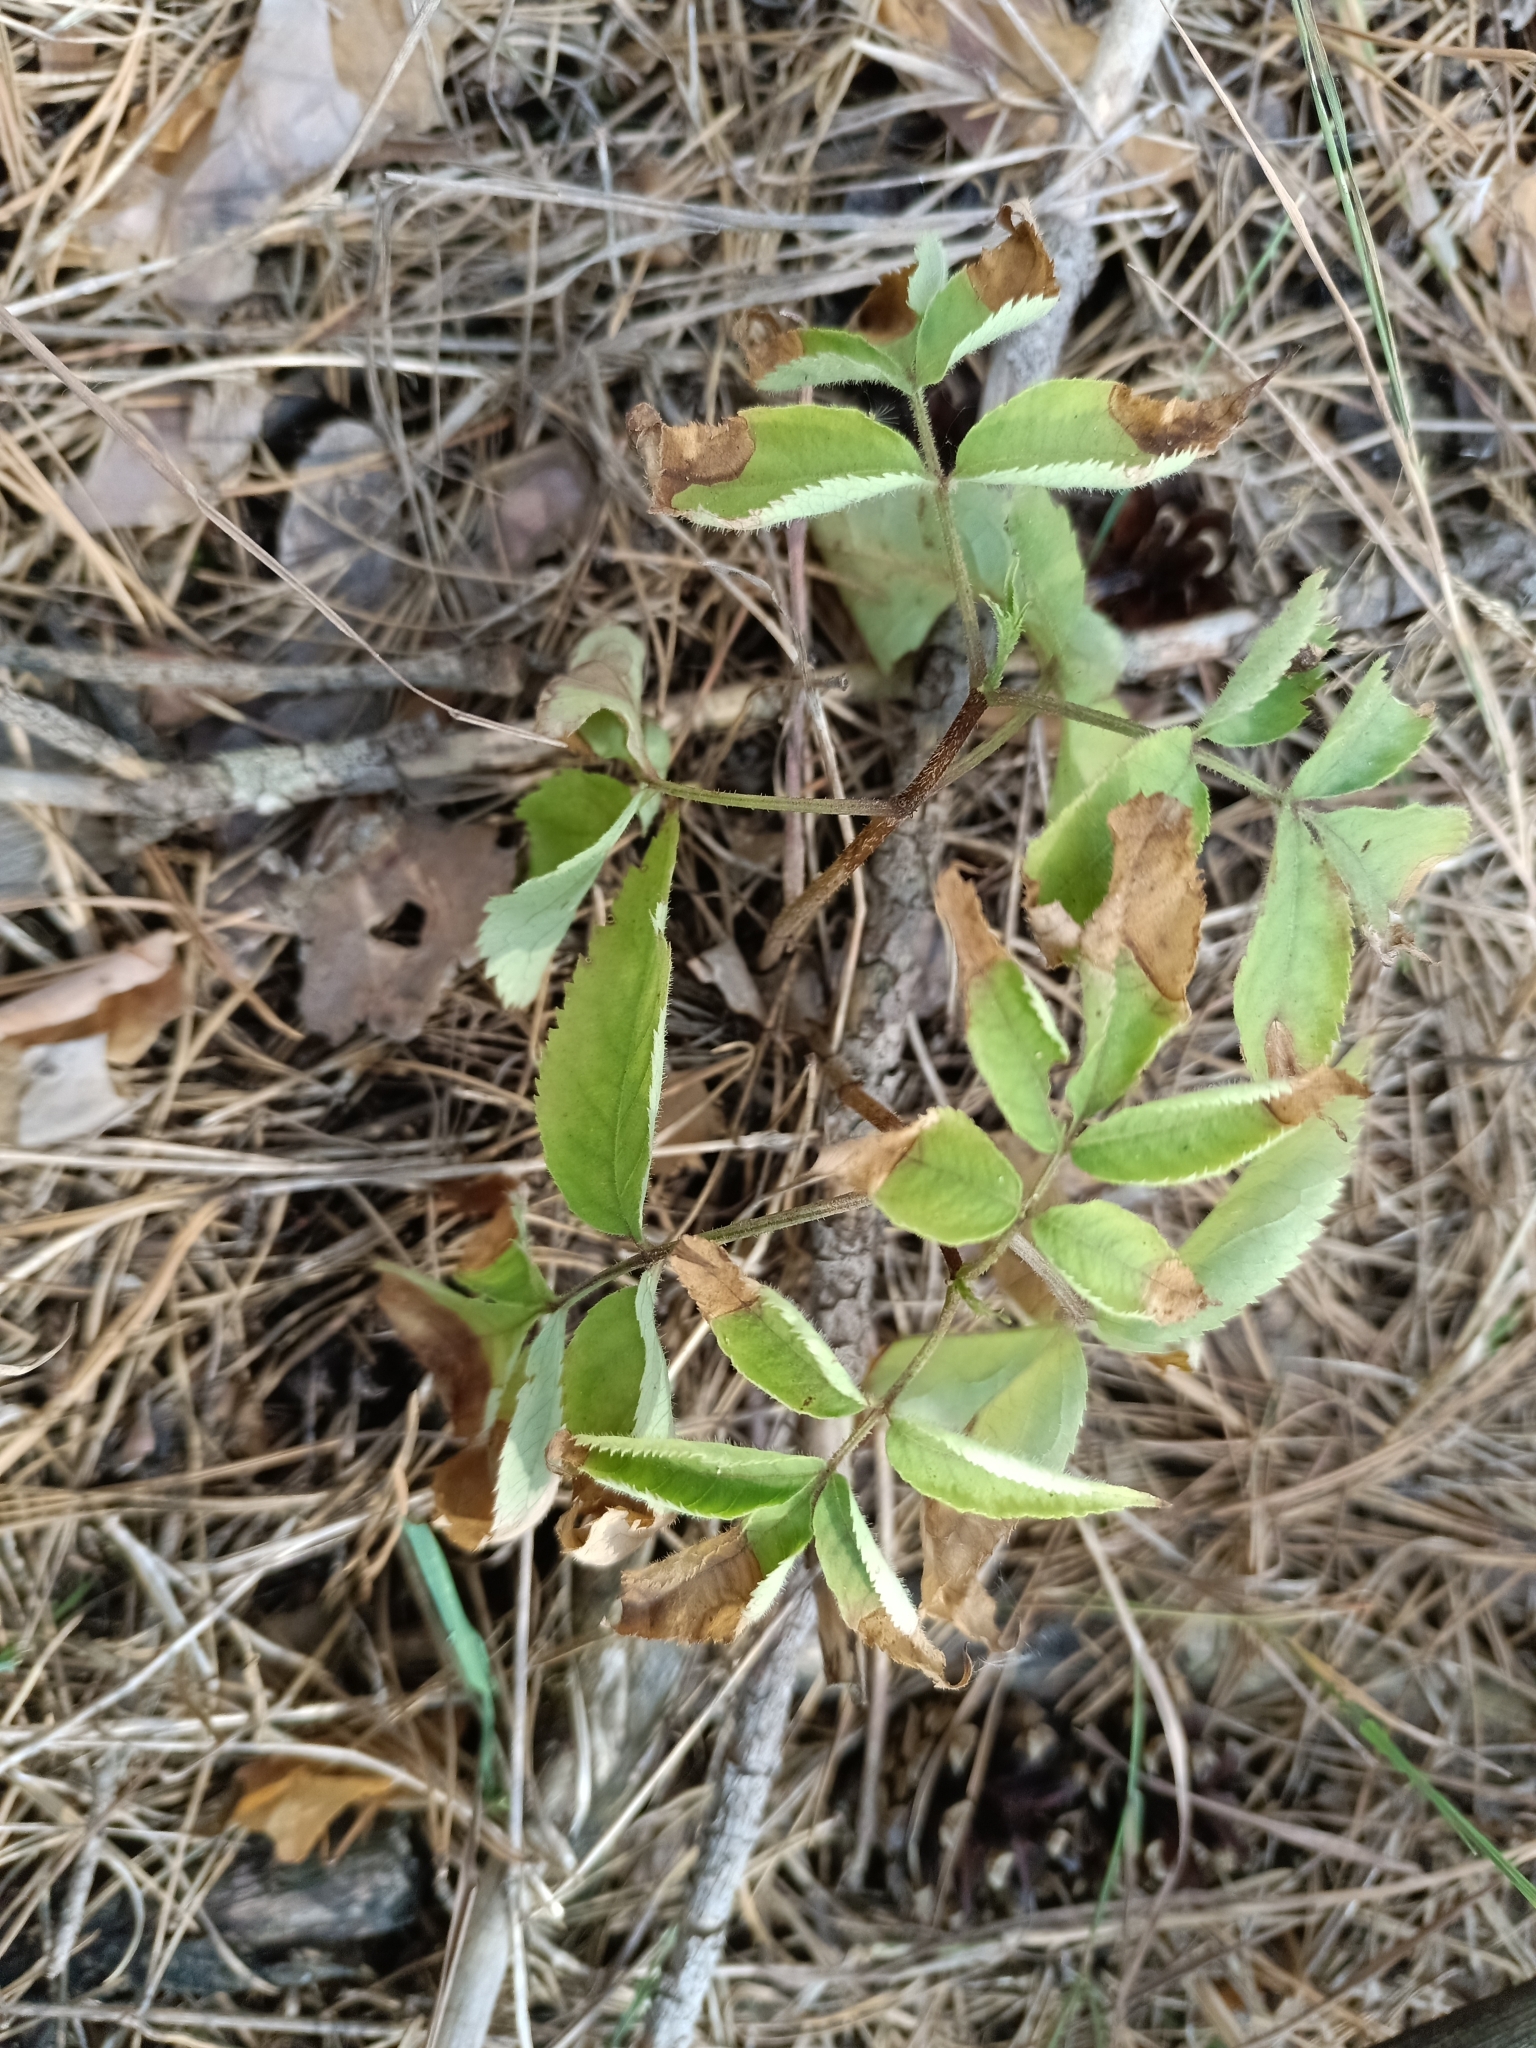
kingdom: Plantae
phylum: Tracheophyta
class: Magnoliopsida
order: Dipsacales
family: Viburnaceae
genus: Sambucus
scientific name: Sambucus racemosa
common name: Red-berried elder
